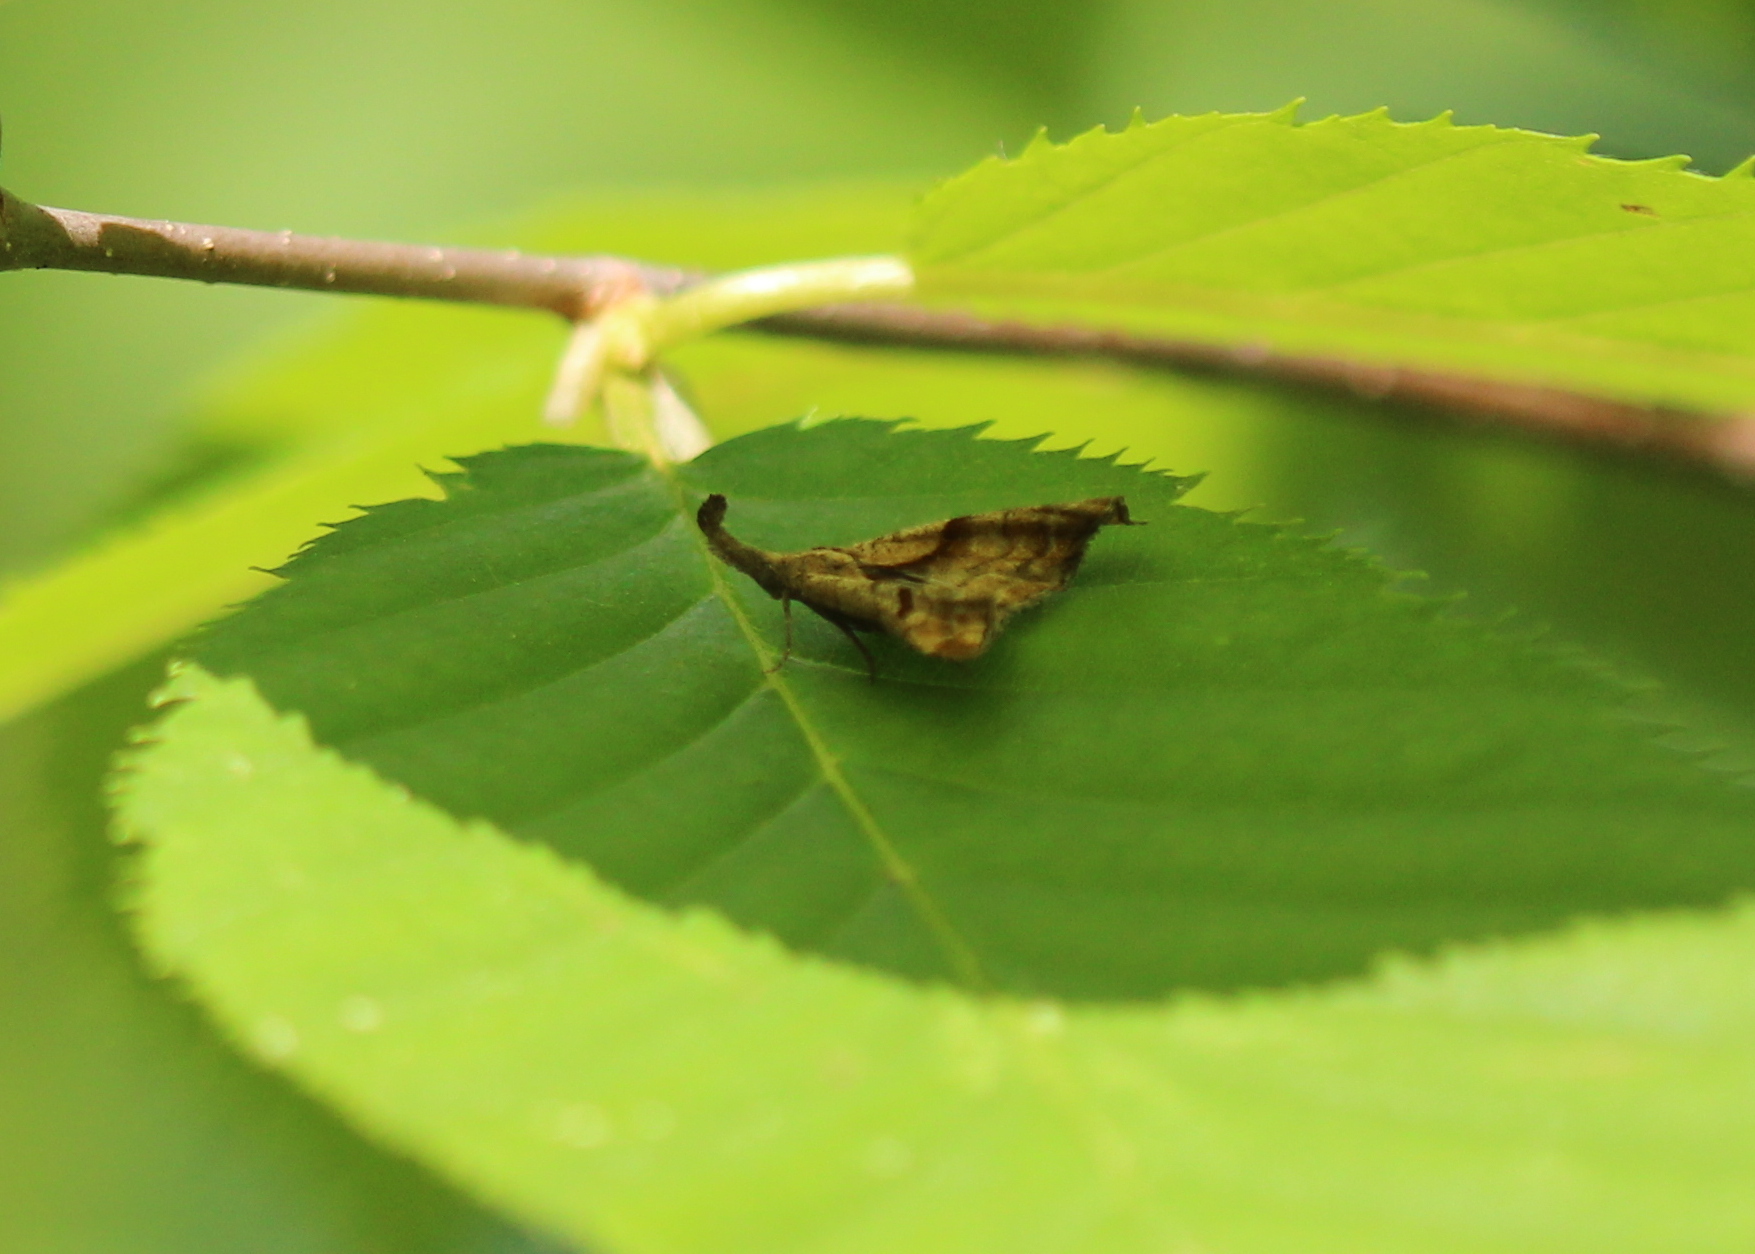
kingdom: Animalia
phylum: Arthropoda
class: Insecta
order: Lepidoptera
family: Erebidae
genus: Palthis
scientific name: Palthis angulalis
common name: Dark-spotted palthis moth
